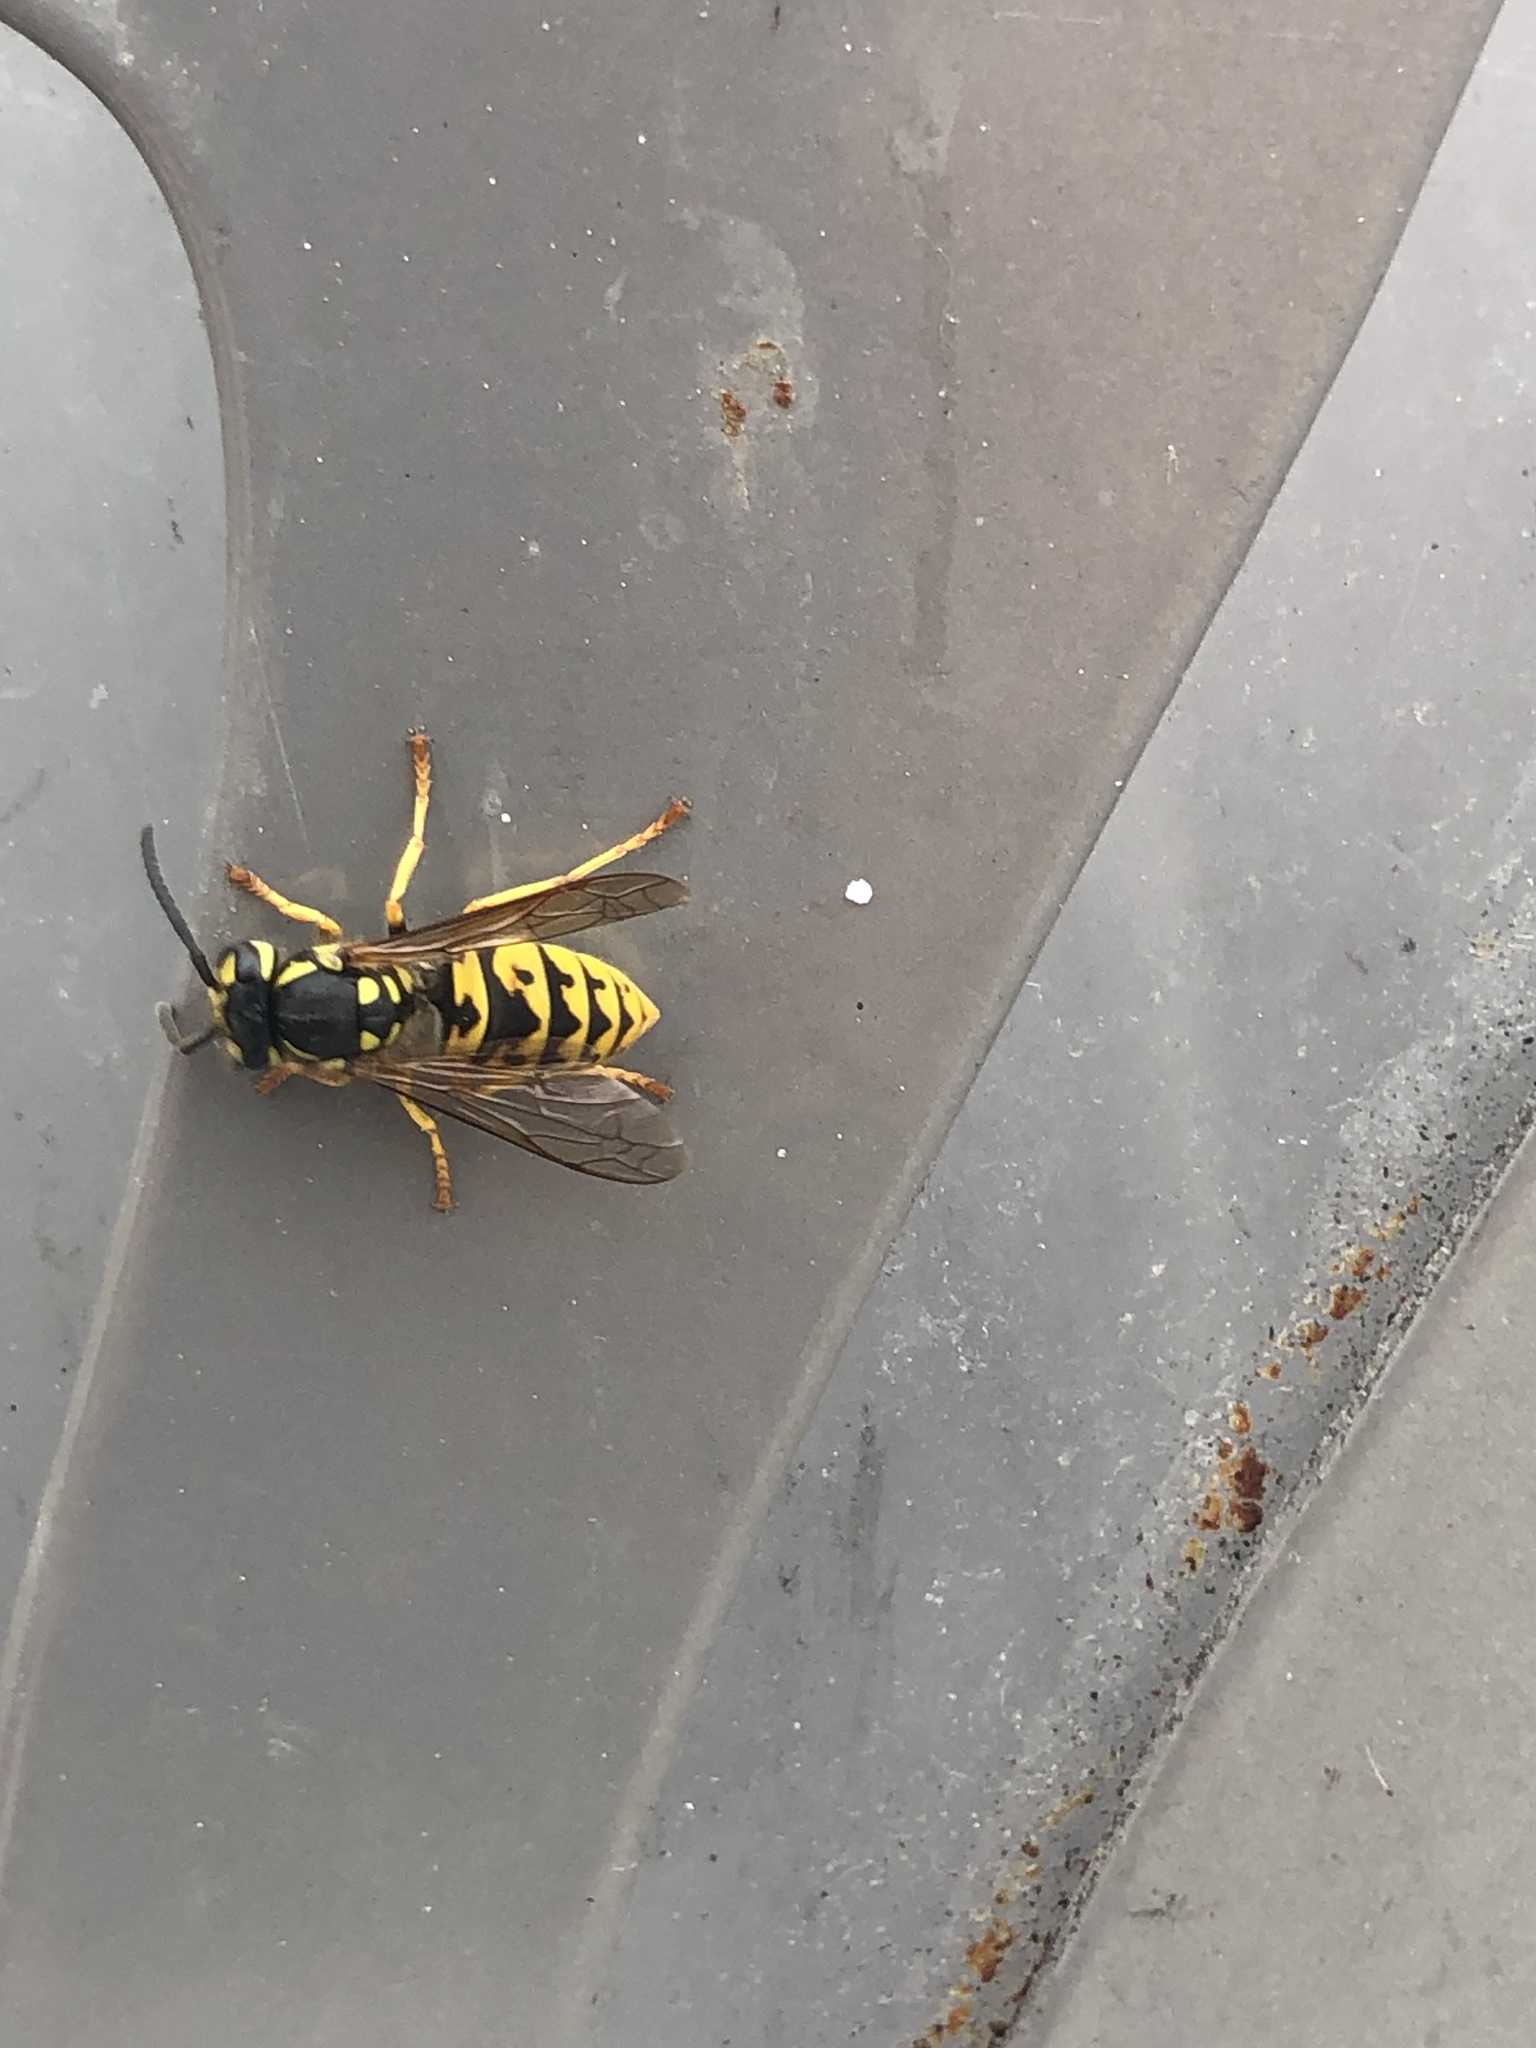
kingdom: Animalia
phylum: Arthropoda
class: Insecta
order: Hymenoptera
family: Vespidae
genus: Vespula
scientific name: Vespula germanica
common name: German wasp
